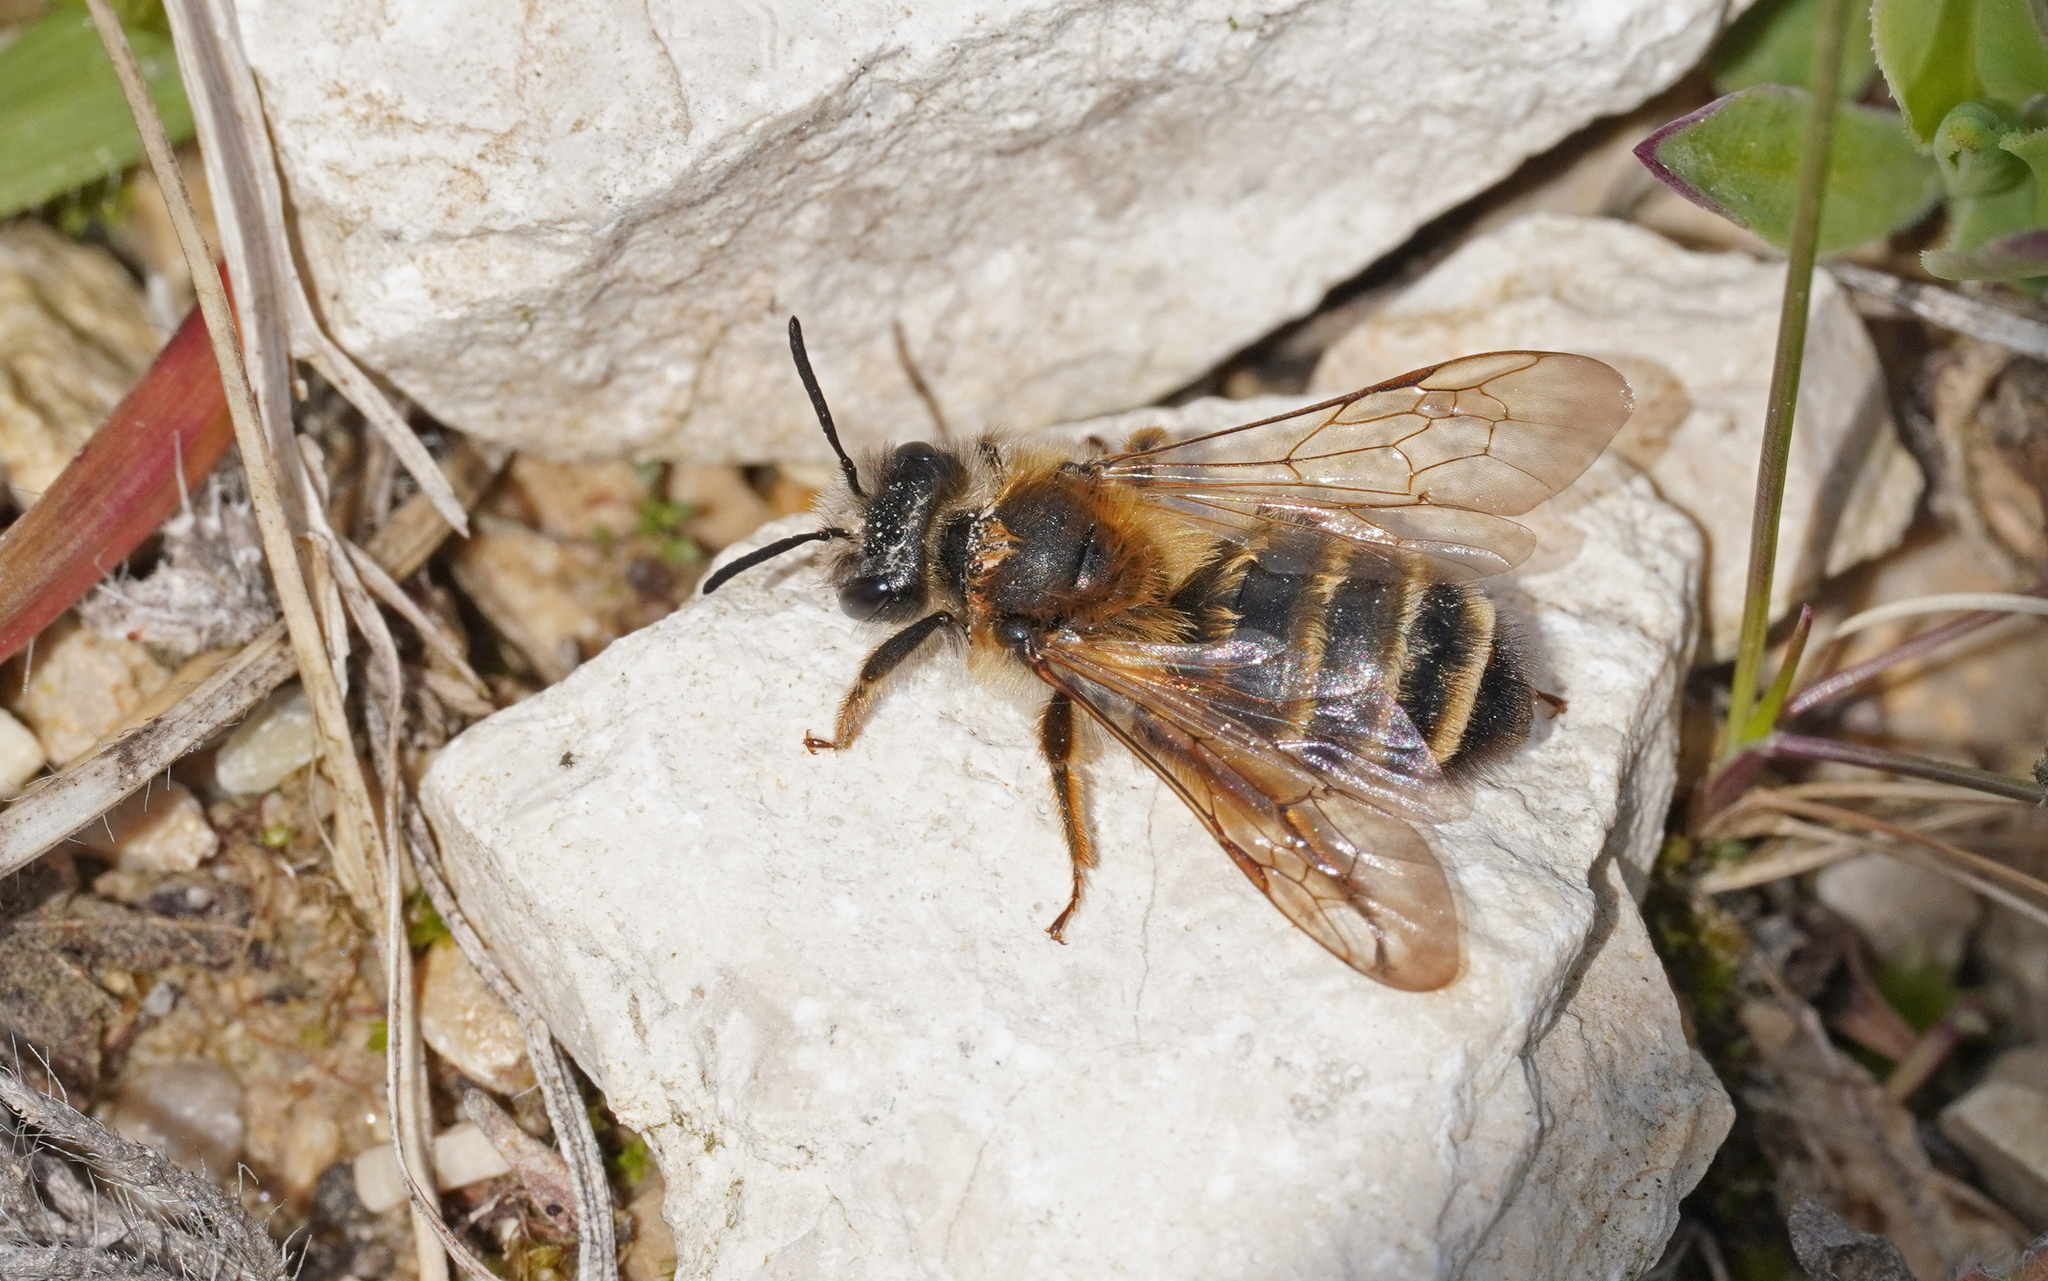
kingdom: Animalia
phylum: Arthropoda
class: Insecta
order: Hymenoptera
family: Andrenidae
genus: Andrena
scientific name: Andrena gravida
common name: White-bellied mining bee
